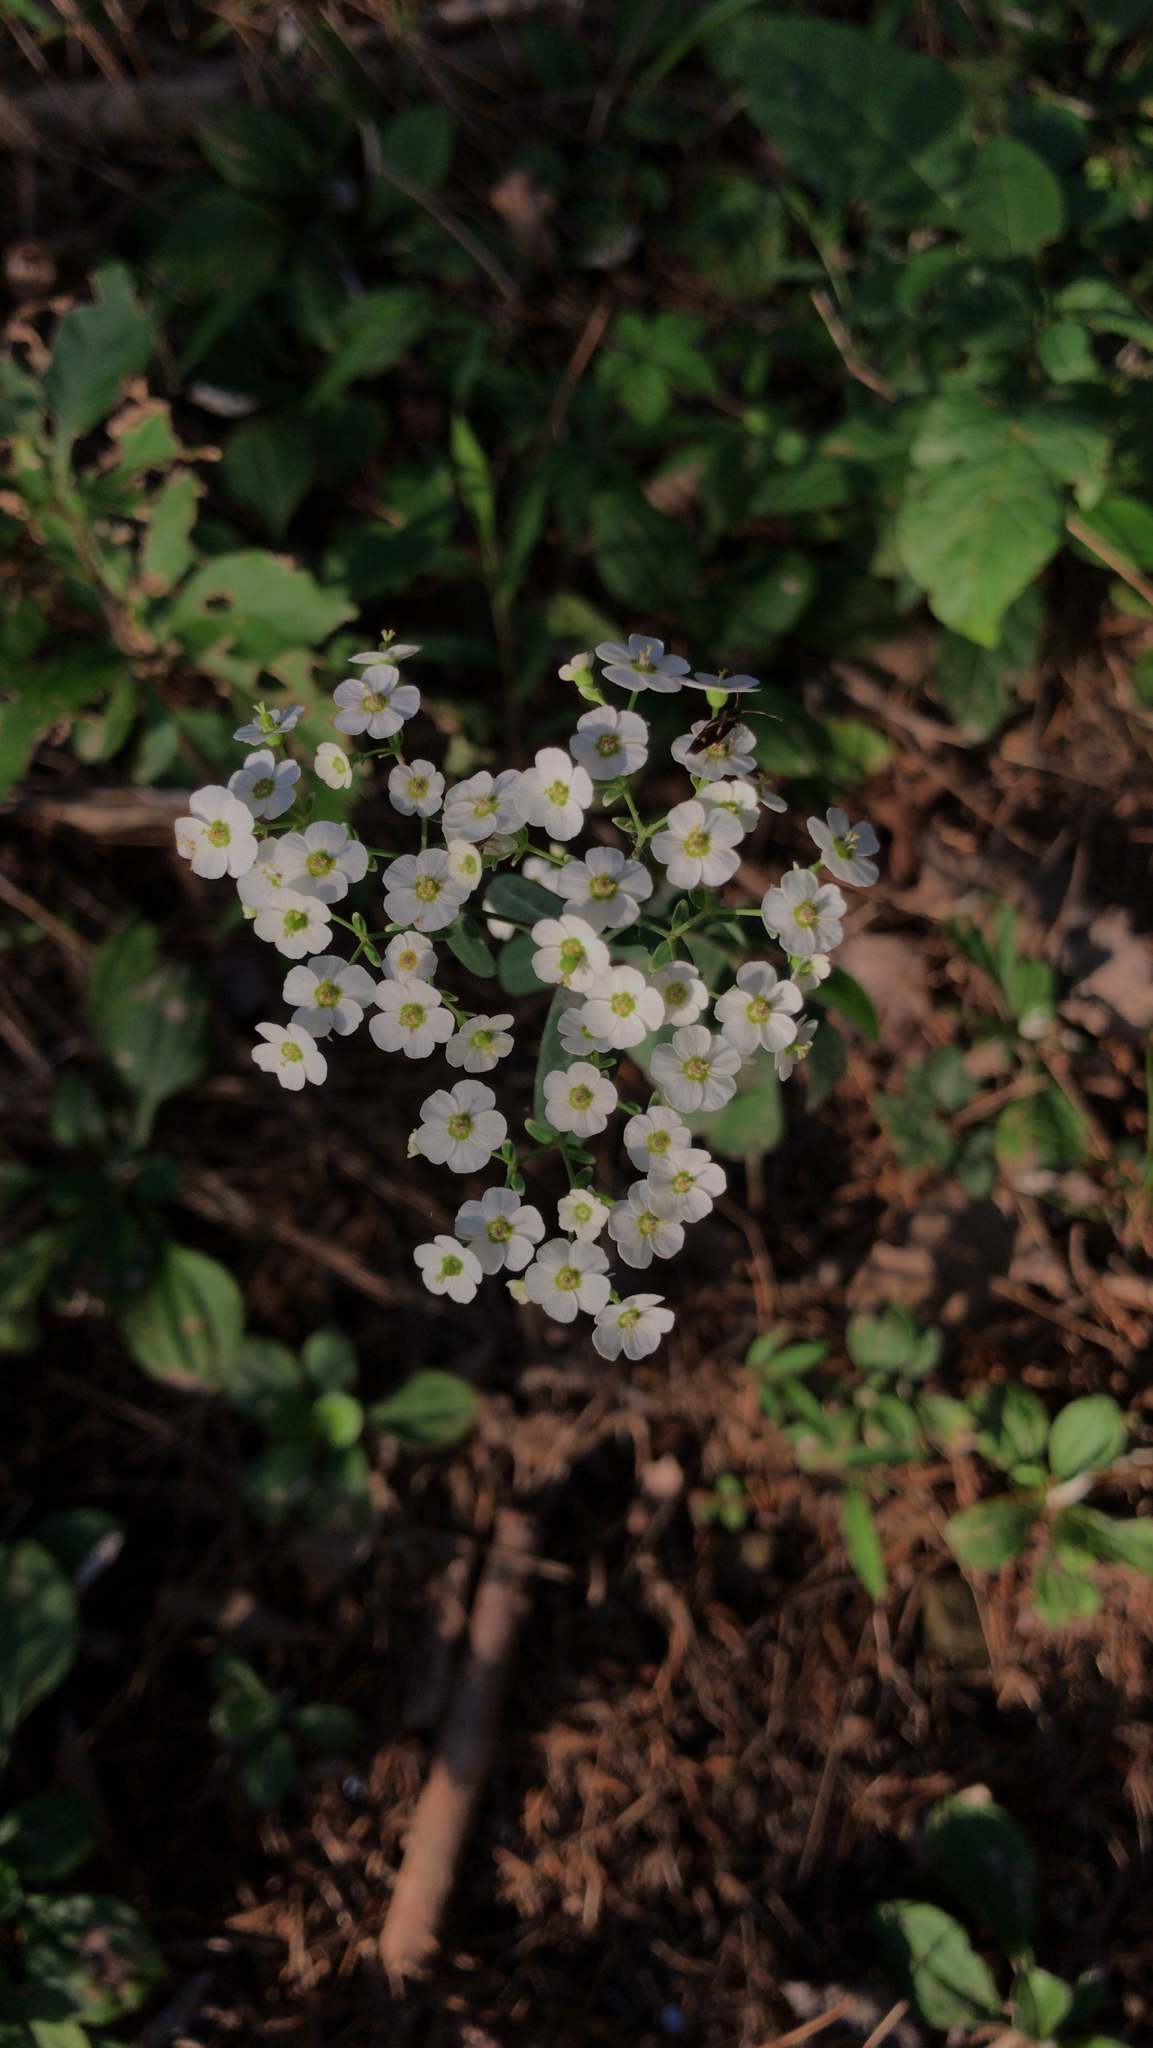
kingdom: Plantae
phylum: Tracheophyta
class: Magnoliopsida
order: Malpighiales
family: Euphorbiaceae
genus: Euphorbia
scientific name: Euphorbia corollata
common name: Flowering spurge
